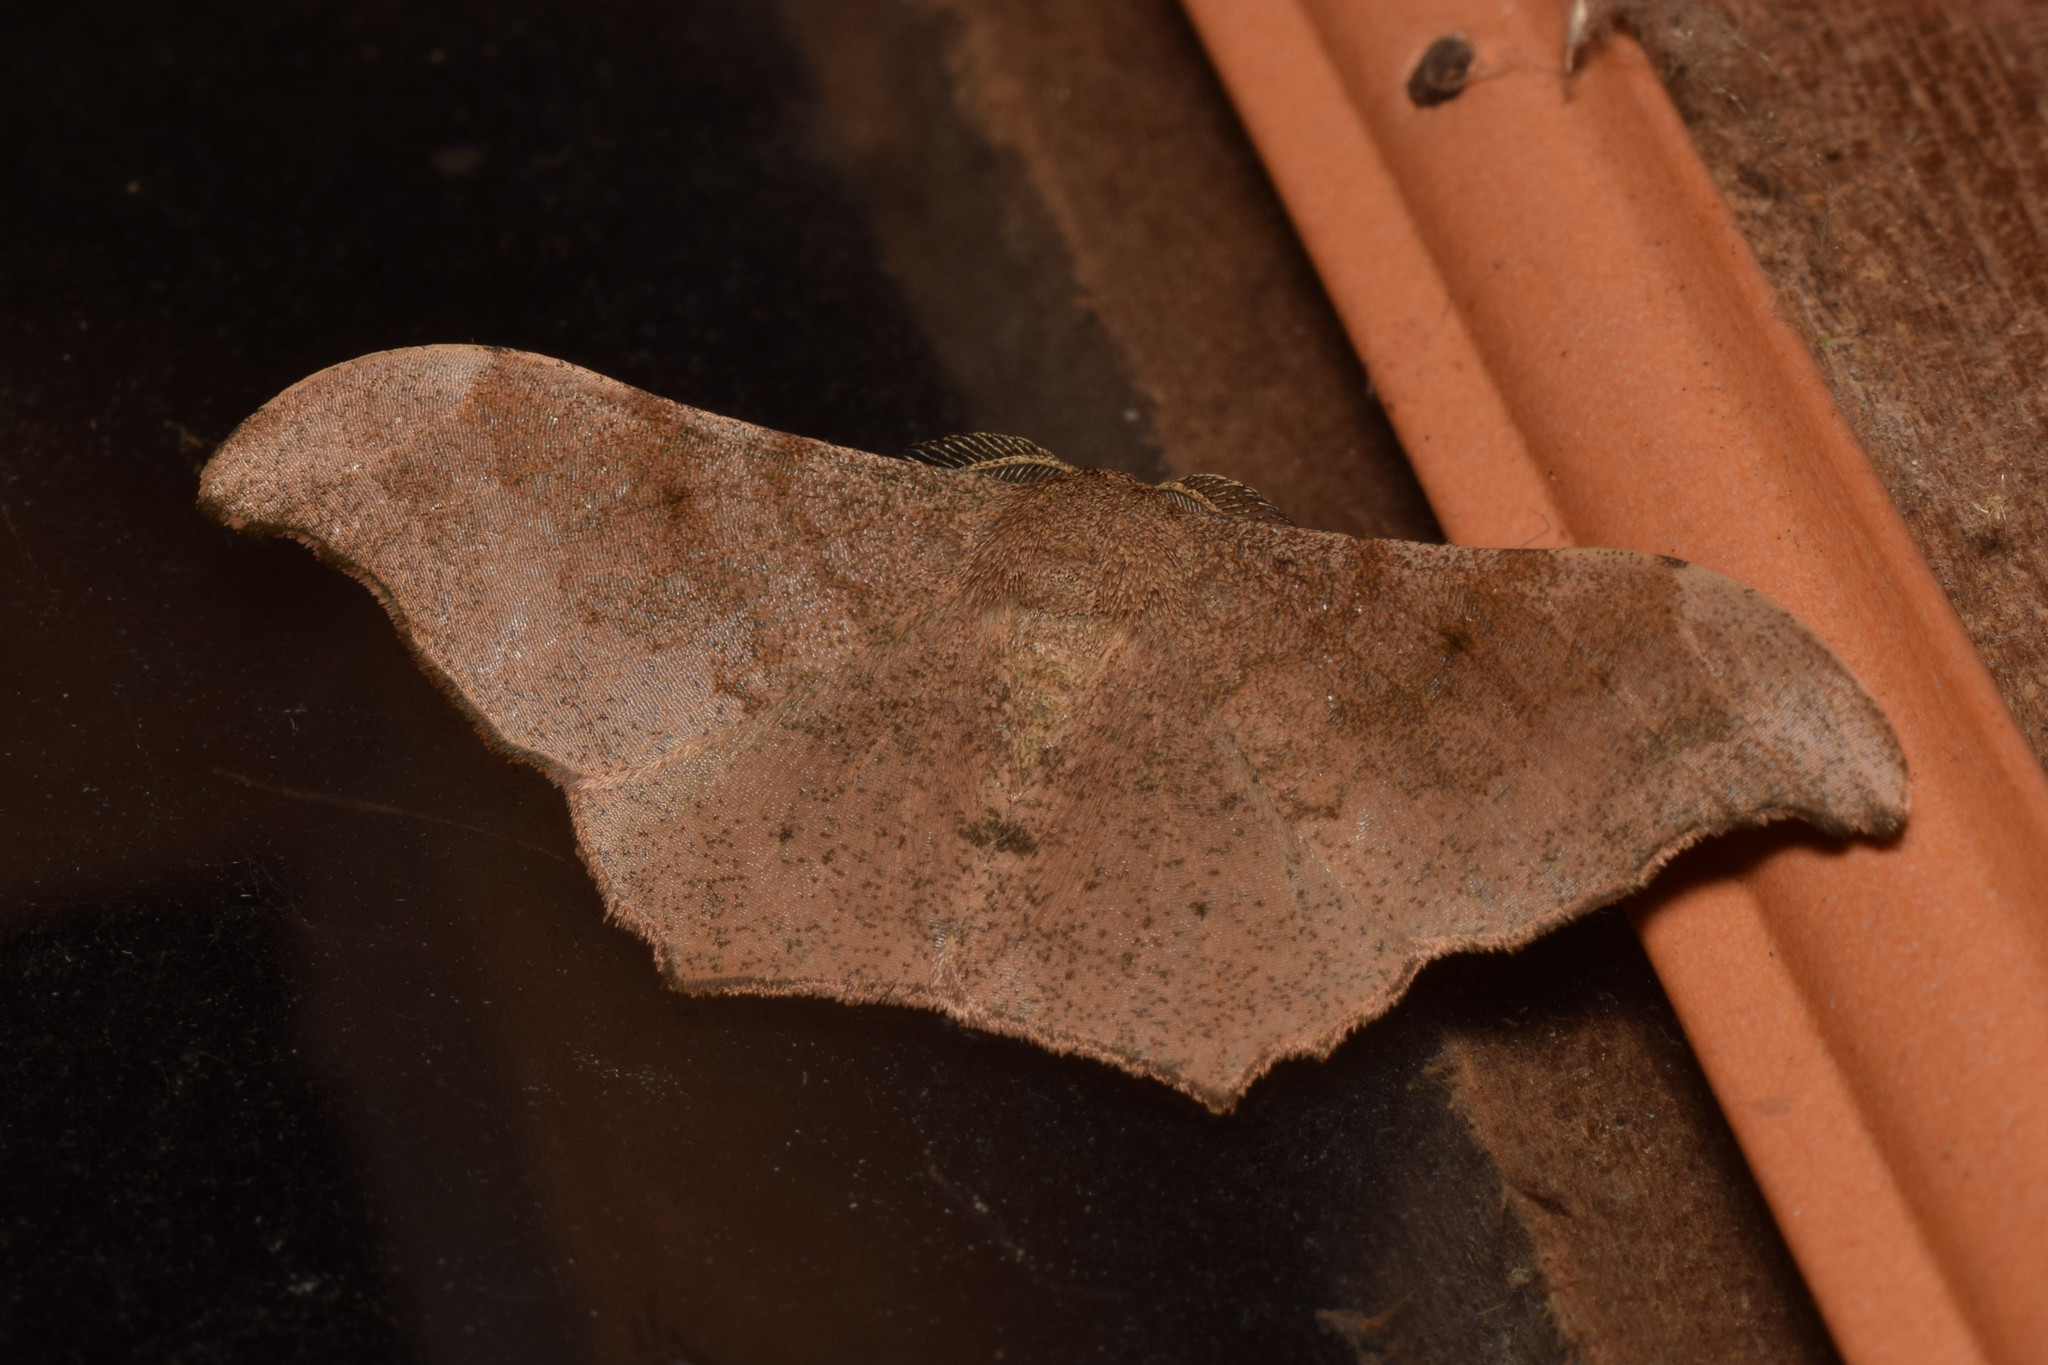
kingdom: Animalia
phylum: Arthropoda
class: Insecta
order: Lepidoptera
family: Geometridae
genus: Hyposidra
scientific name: Hyposidra talaca
